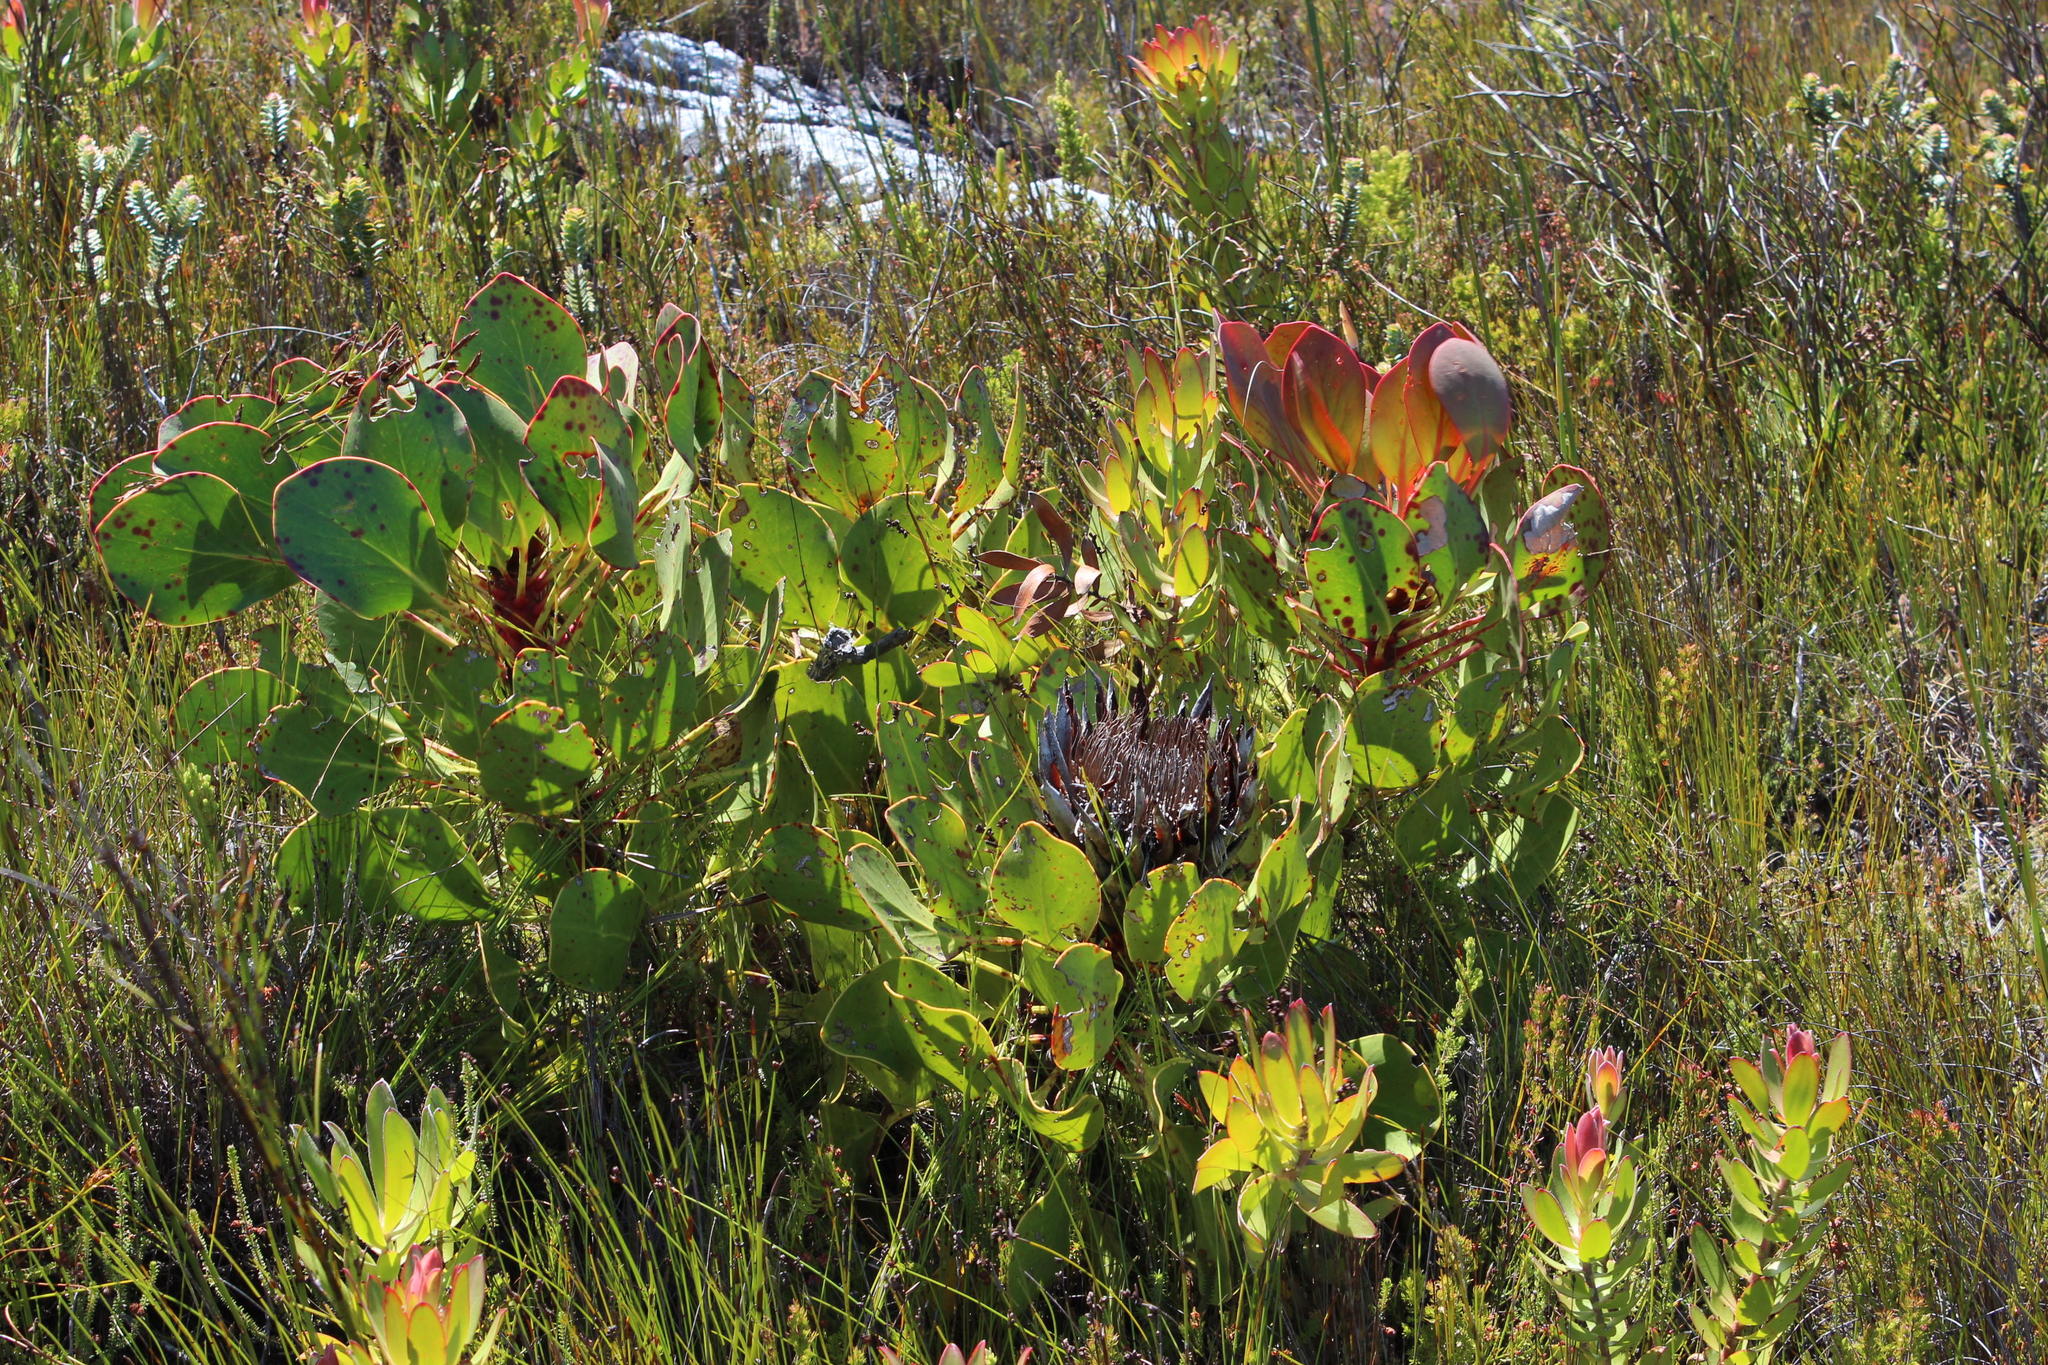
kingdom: Plantae
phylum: Tracheophyta
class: Magnoliopsida
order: Proteales
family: Proteaceae
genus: Protea
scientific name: Protea cynaroides
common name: King protea
